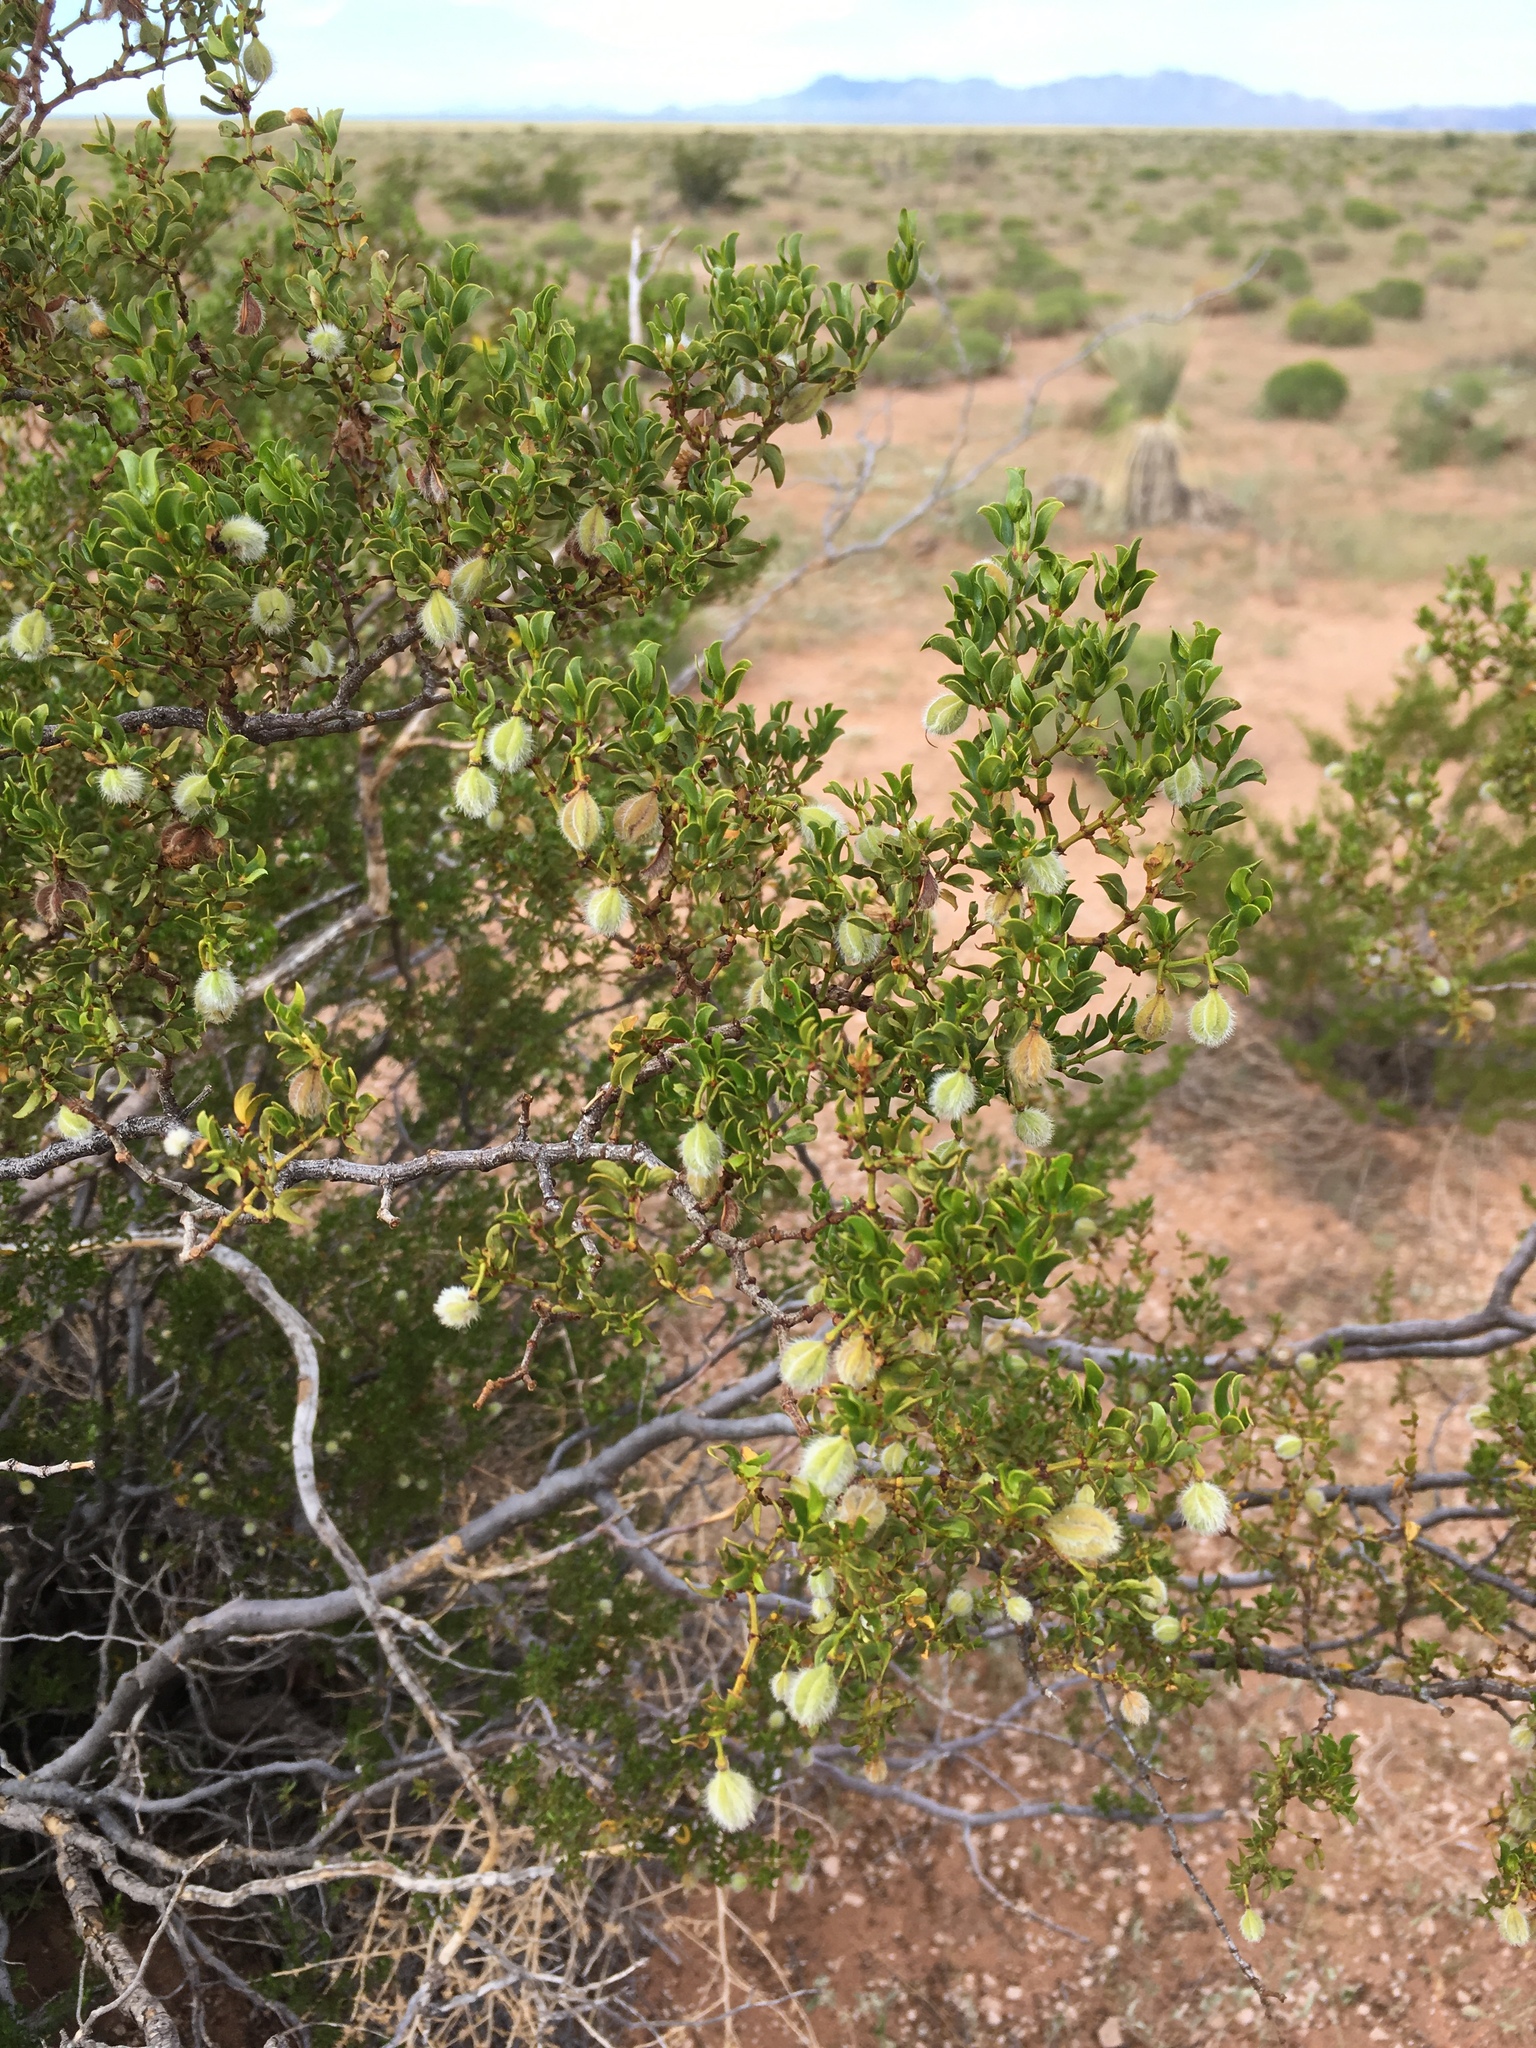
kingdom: Plantae
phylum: Tracheophyta
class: Magnoliopsida
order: Zygophyllales
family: Zygophyllaceae
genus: Larrea
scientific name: Larrea tridentata
